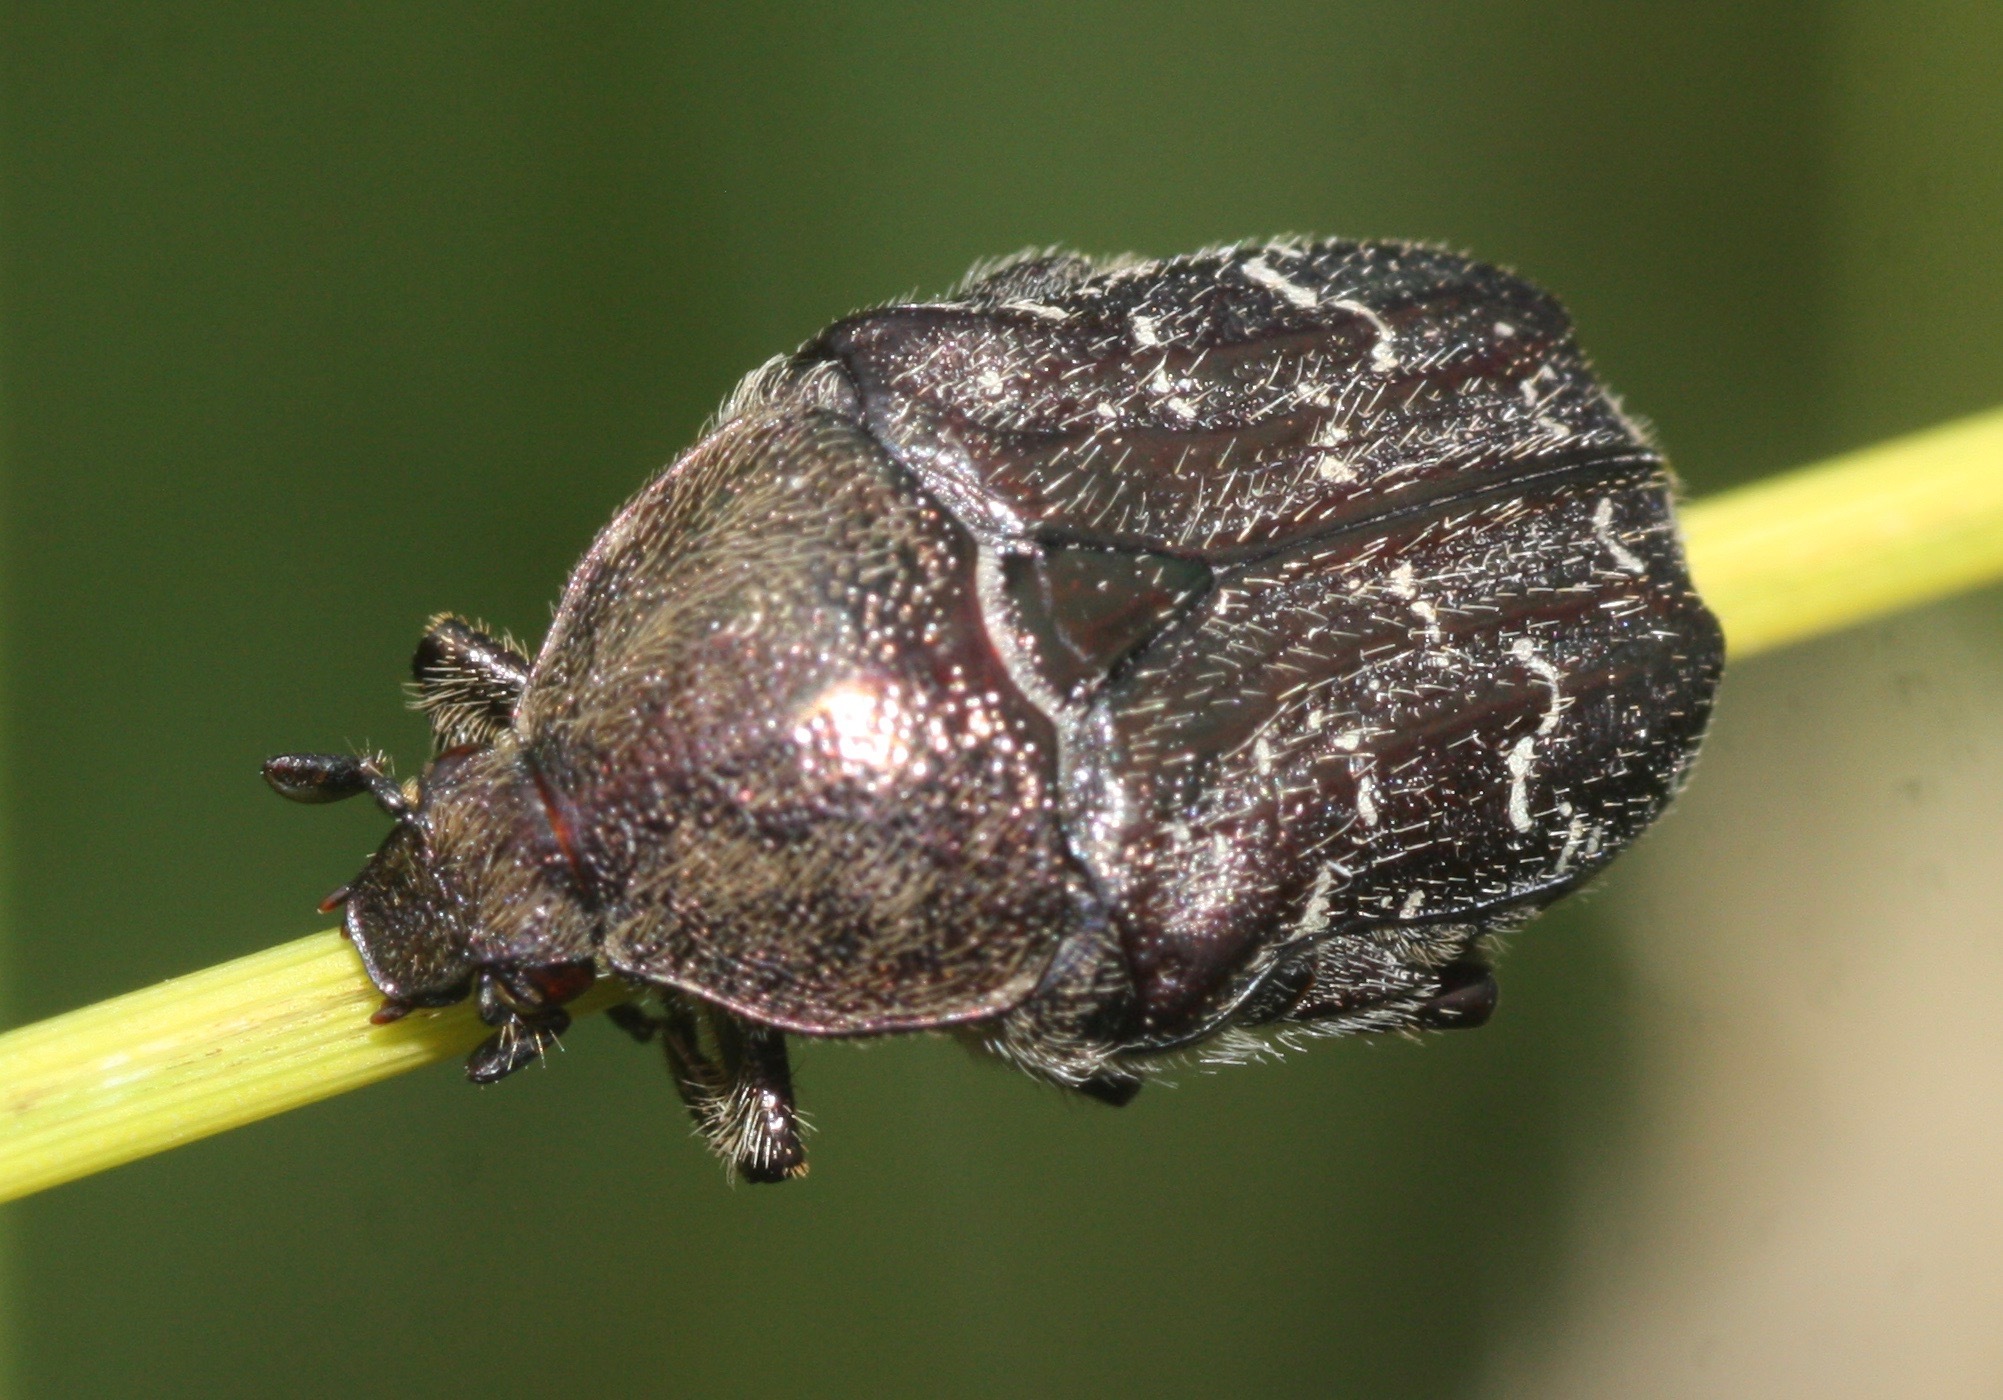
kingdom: Animalia
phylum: Arthropoda
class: Insecta
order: Coleoptera
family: Scarabaeidae
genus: Euphoria
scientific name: Euphoria sepulcralis
